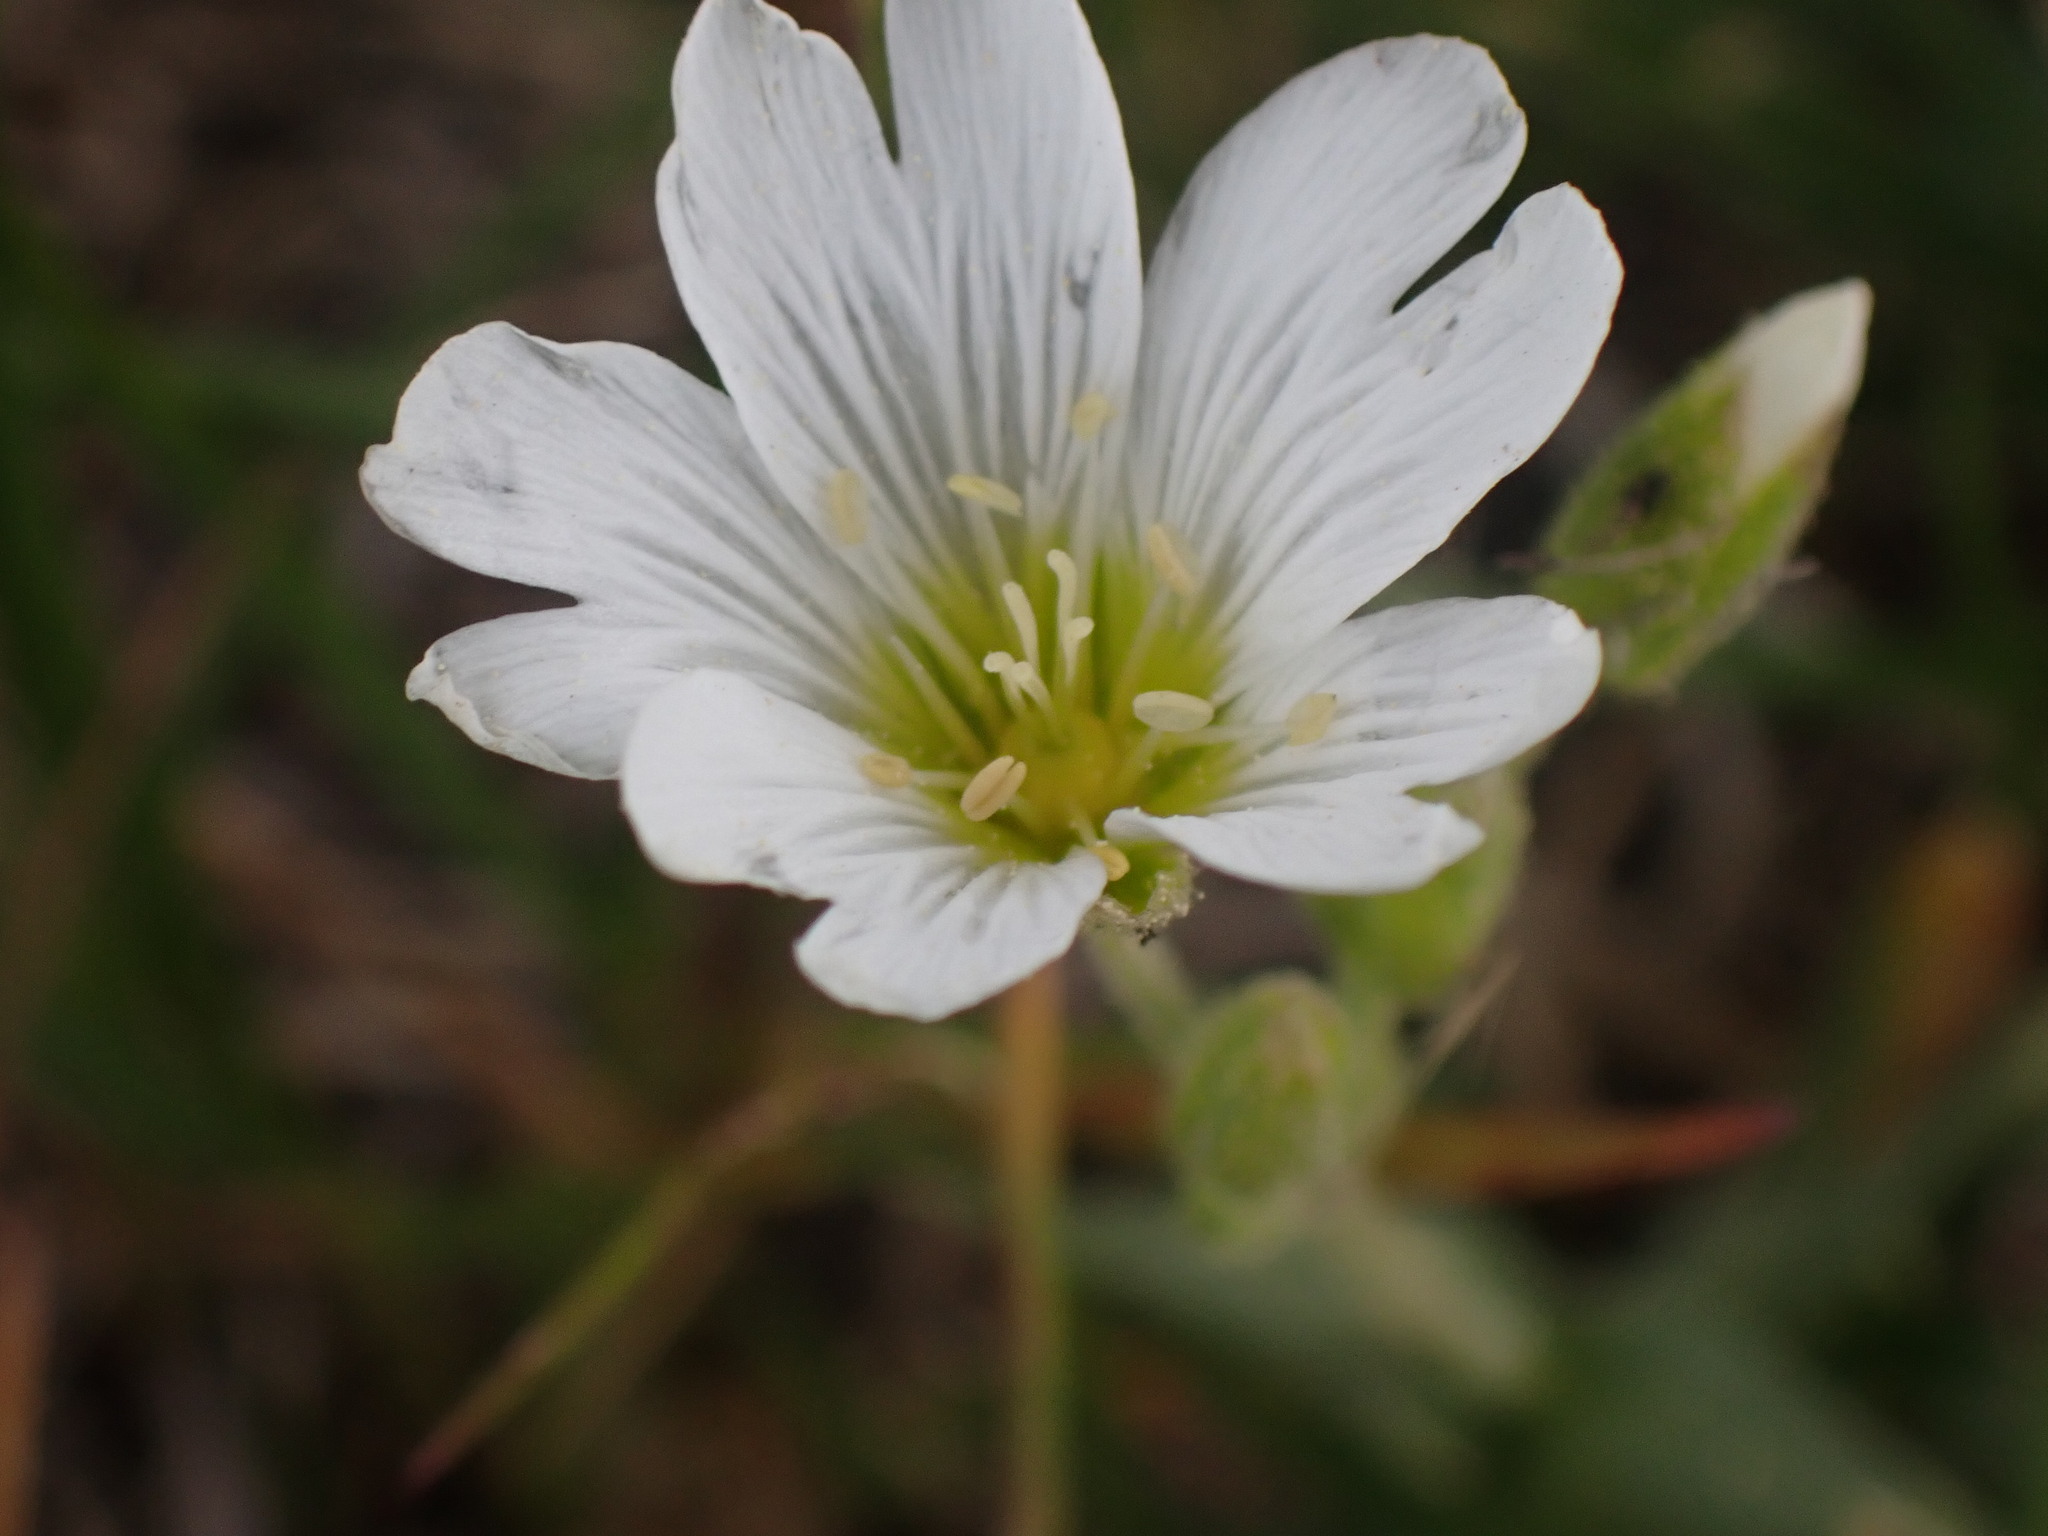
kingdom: Plantae
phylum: Tracheophyta
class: Magnoliopsida
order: Caryophyllales
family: Caryophyllaceae
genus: Cerastium
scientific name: Cerastium arvense
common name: Field mouse-ear
